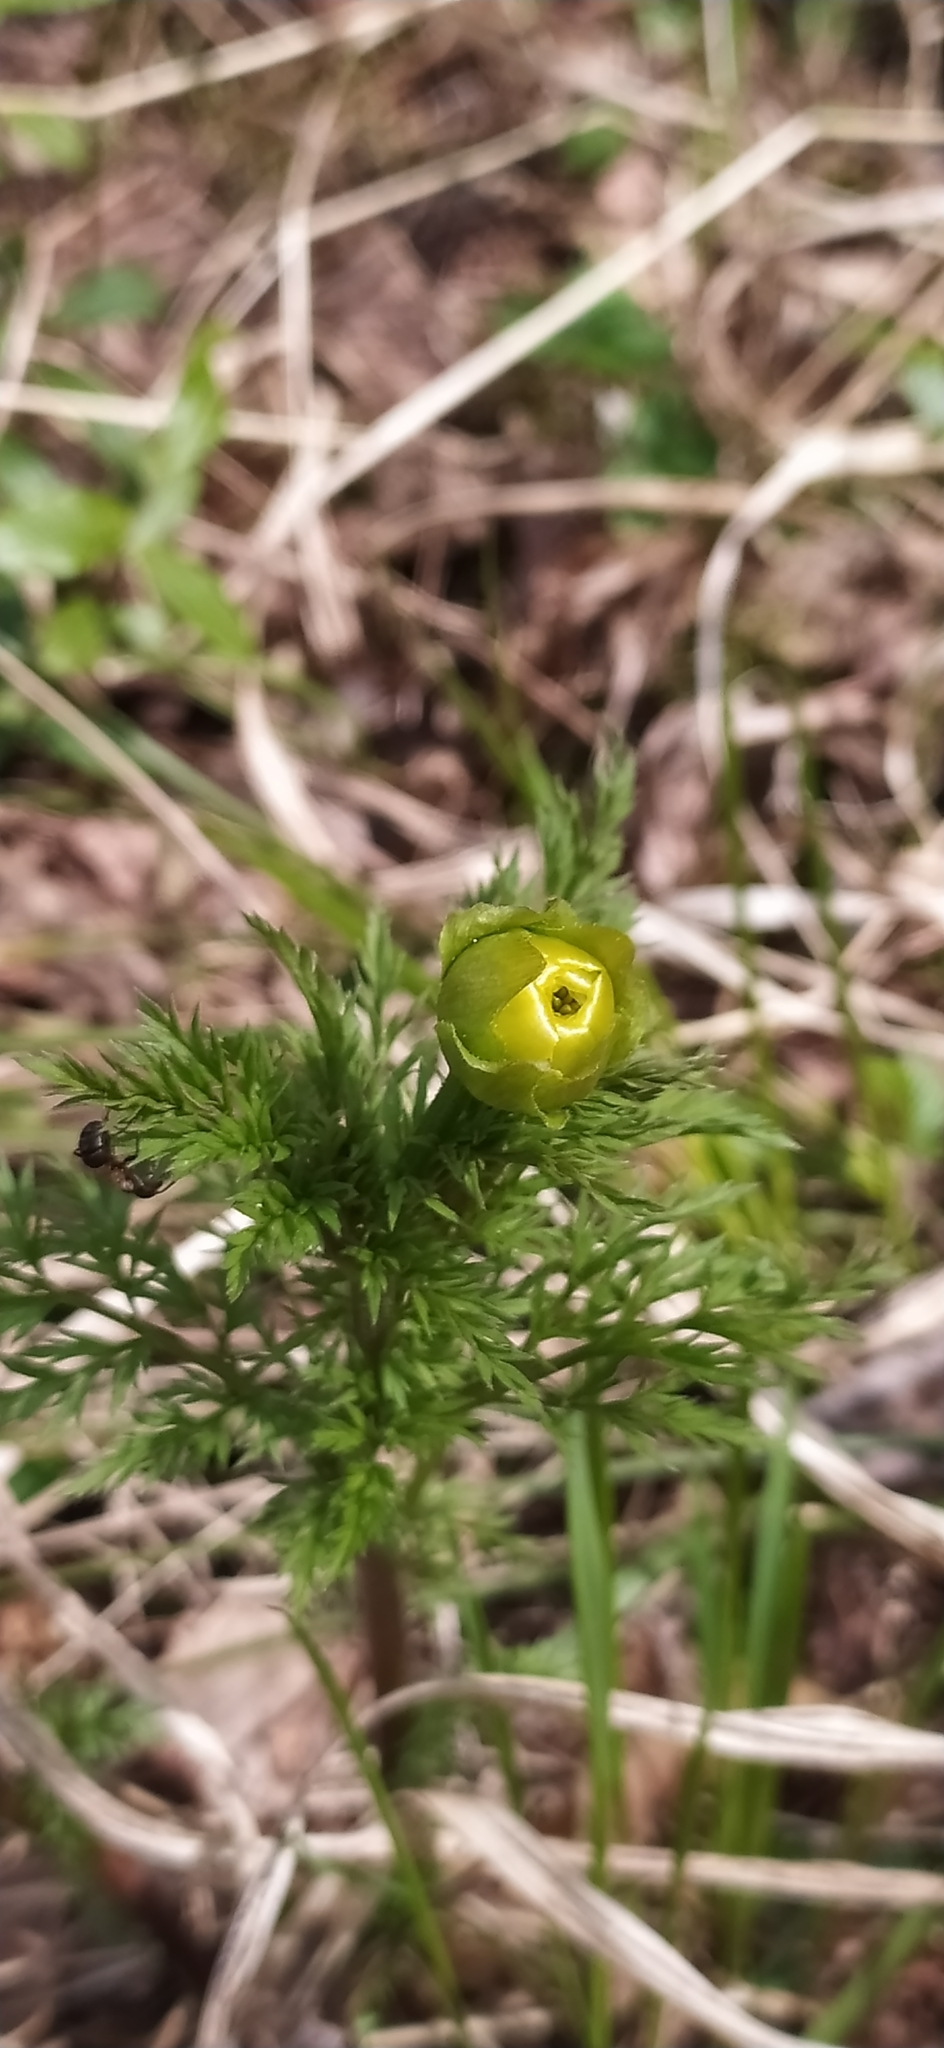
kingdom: Plantae
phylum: Tracheophyta
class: Magnoliopsida
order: Ranunculales
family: Ranunculaceae
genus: Adonis
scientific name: Adonis
